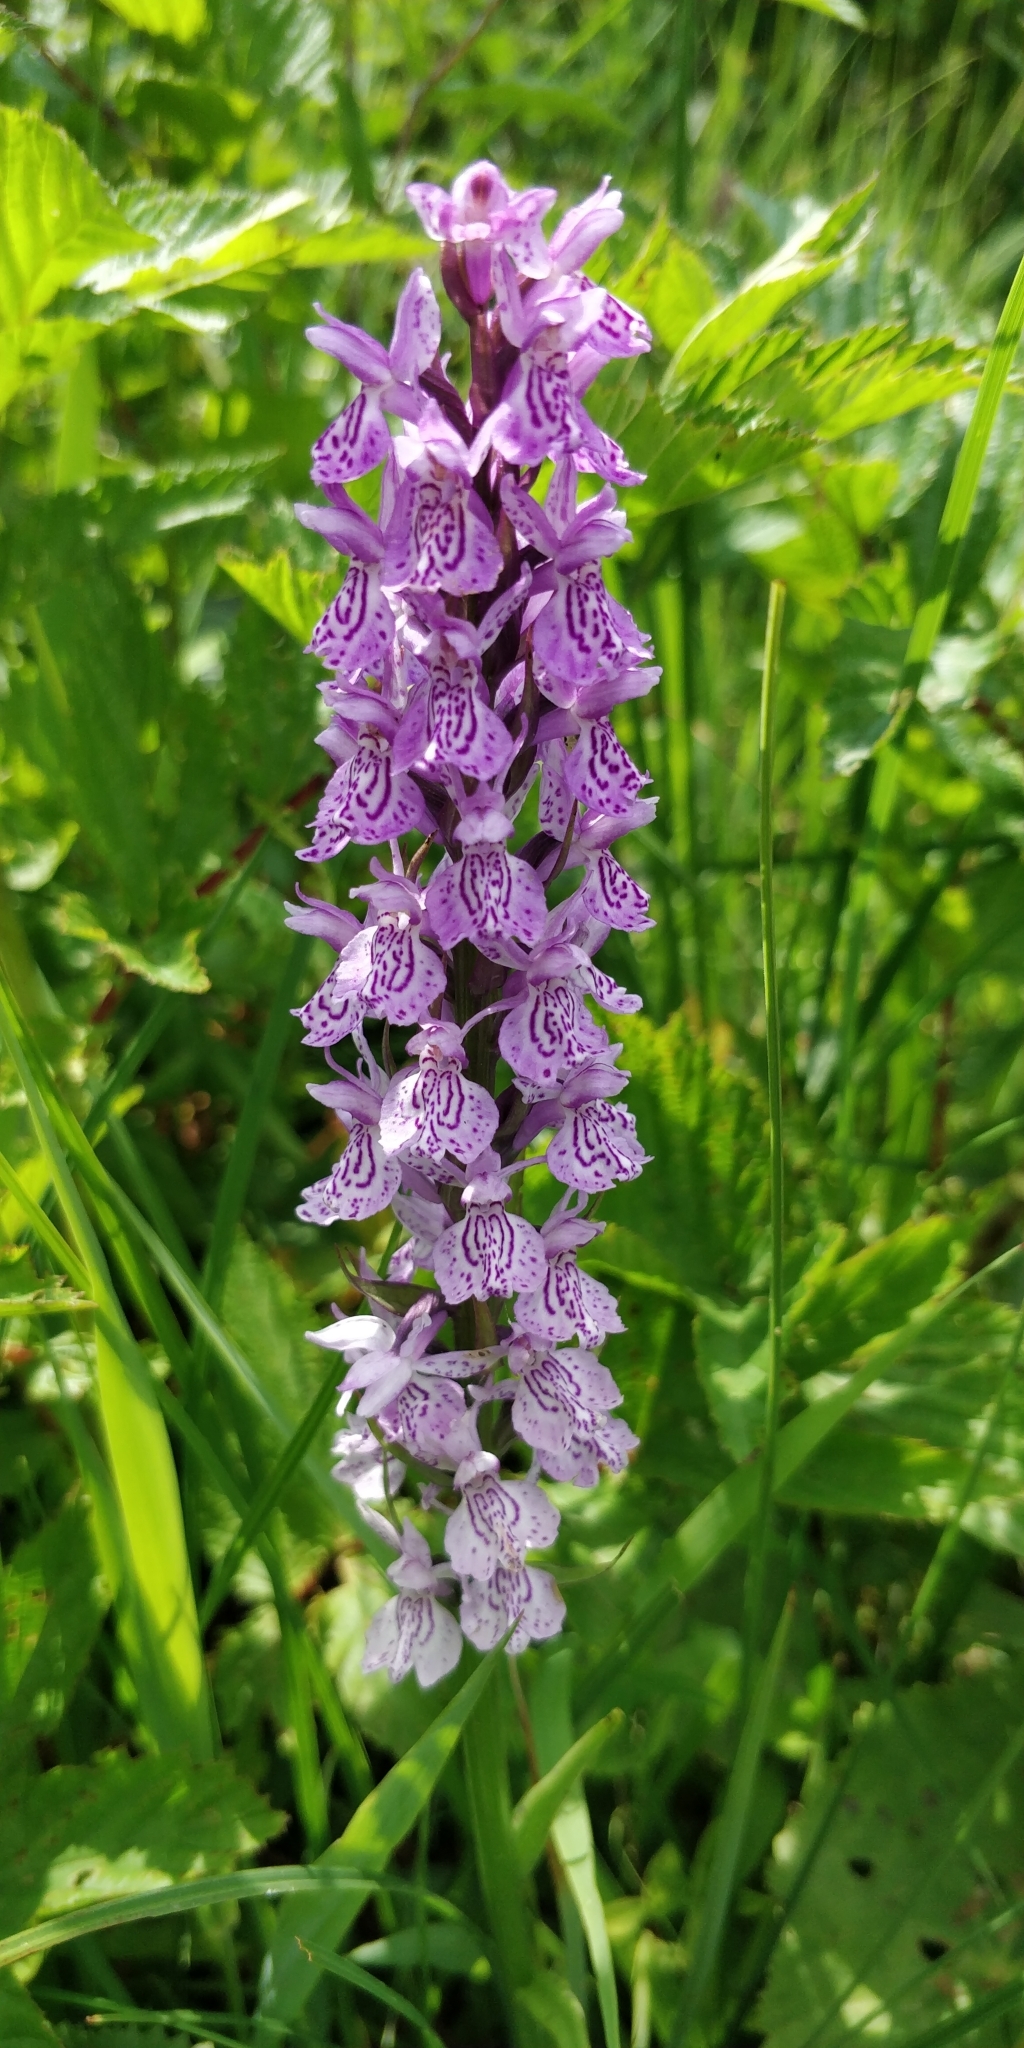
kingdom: Plantae
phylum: Tracheophyta
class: Liliopsida
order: Asparagales
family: Orchidaceae
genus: Dactylorhiza
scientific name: Dactylorhiza maculata
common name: Heath spotted-orchid
